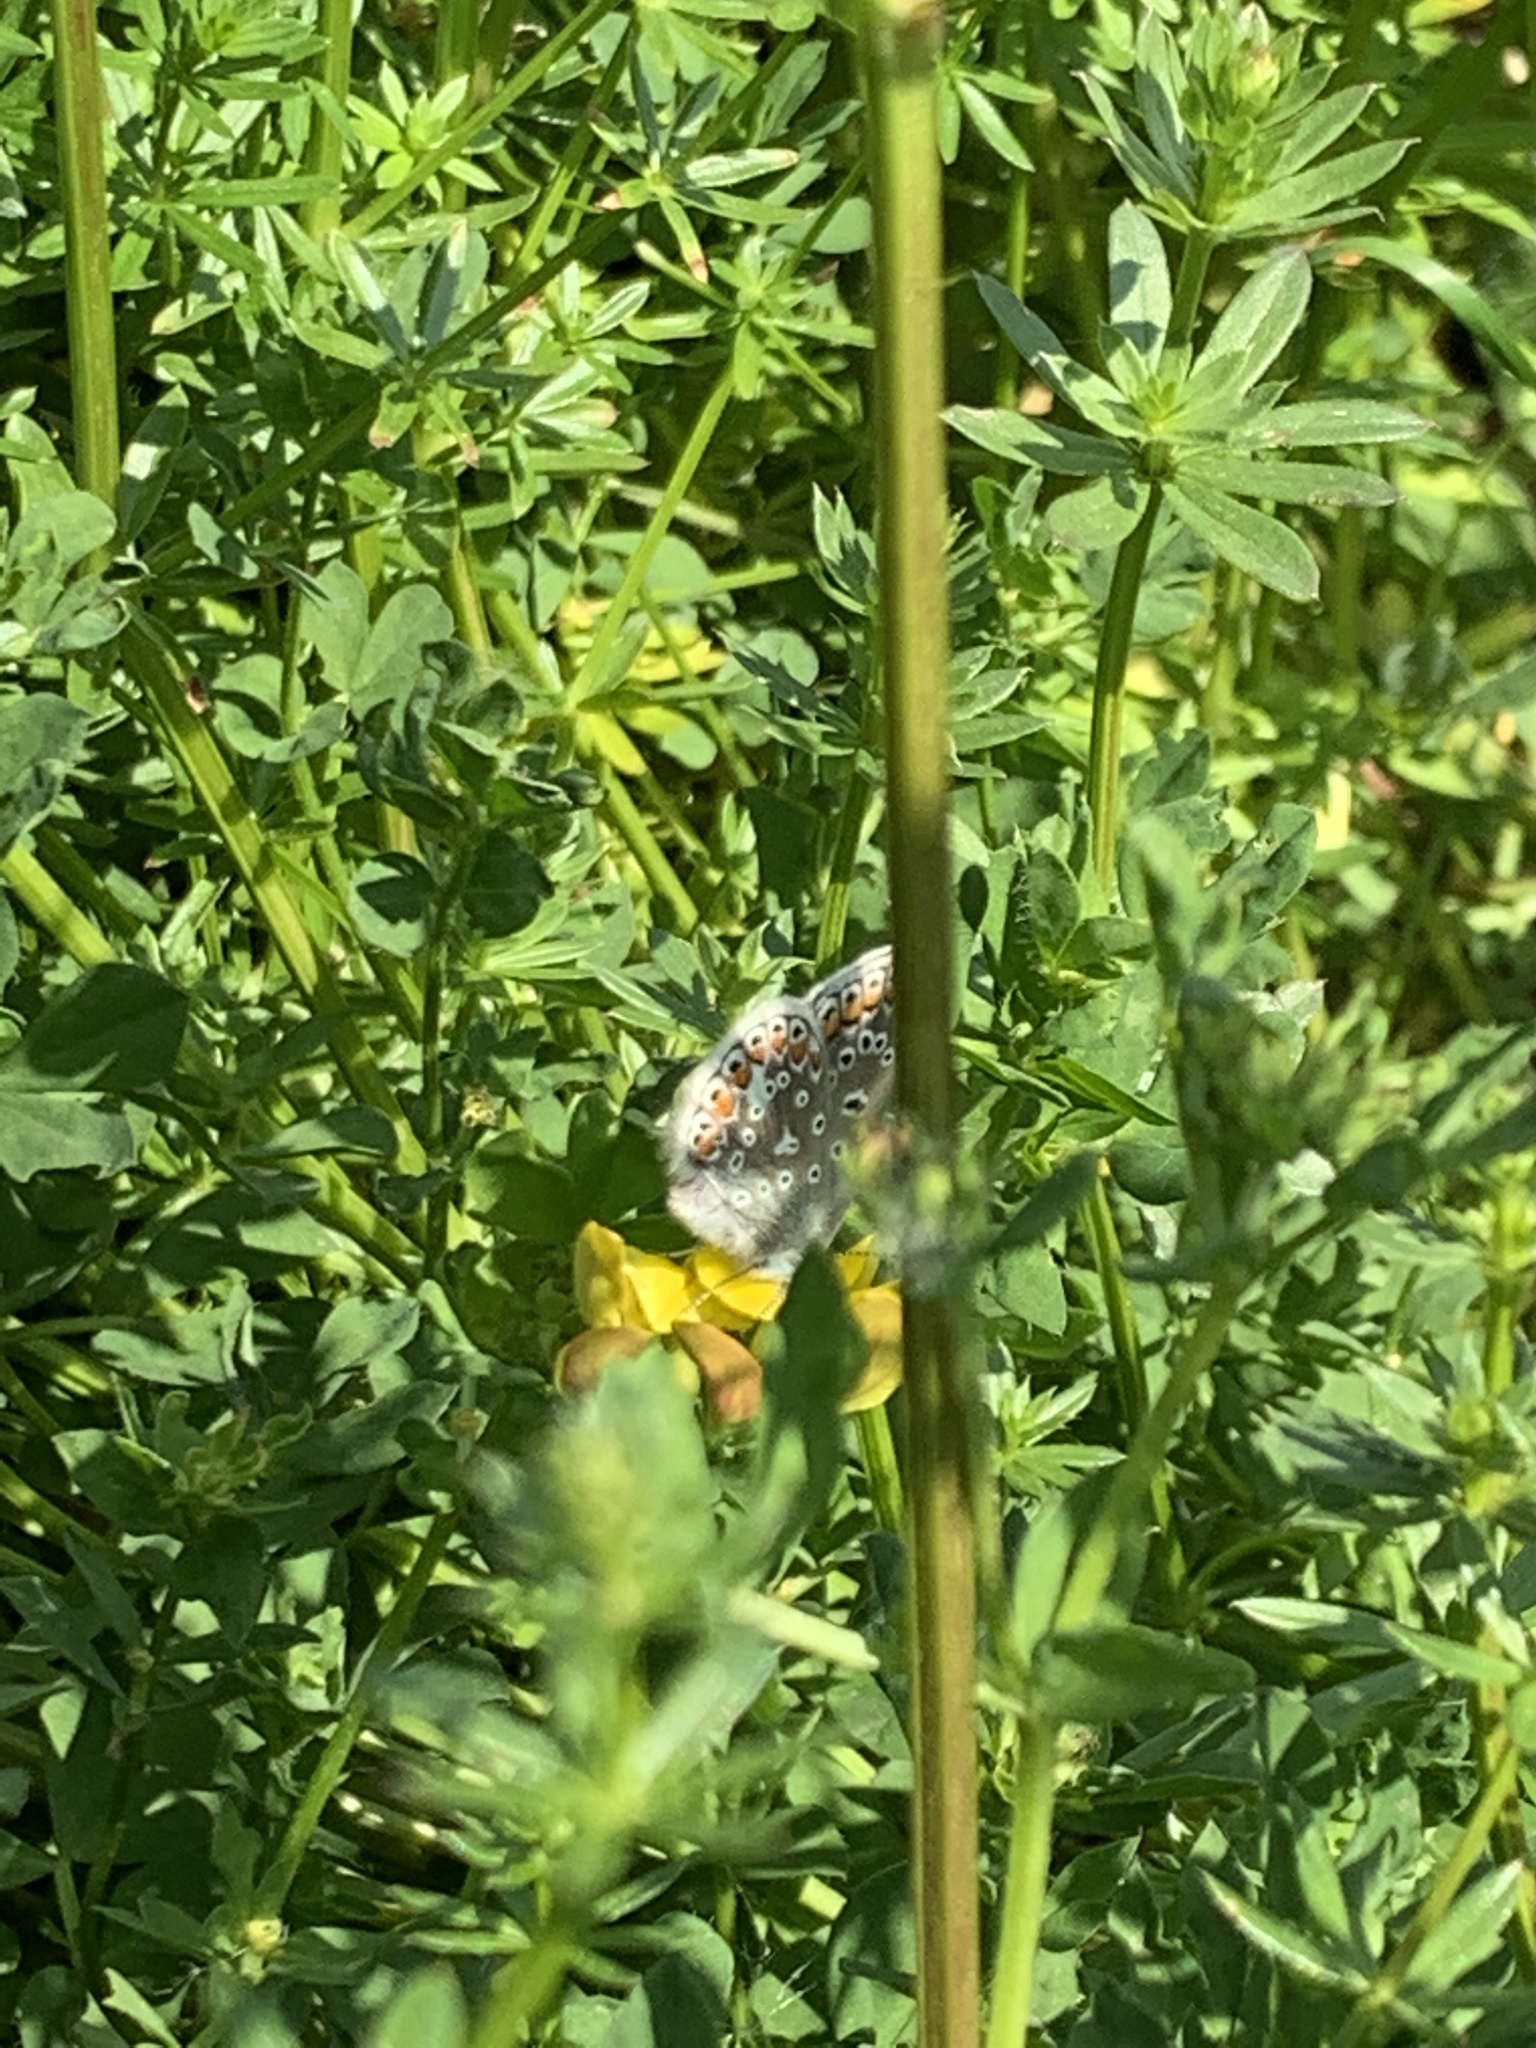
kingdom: Animalia
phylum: Arthropoda
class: Insecta
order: Lepidoptera
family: Lycaenidae
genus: Polyommatus
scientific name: Polyommatus icarus
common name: Common blue
